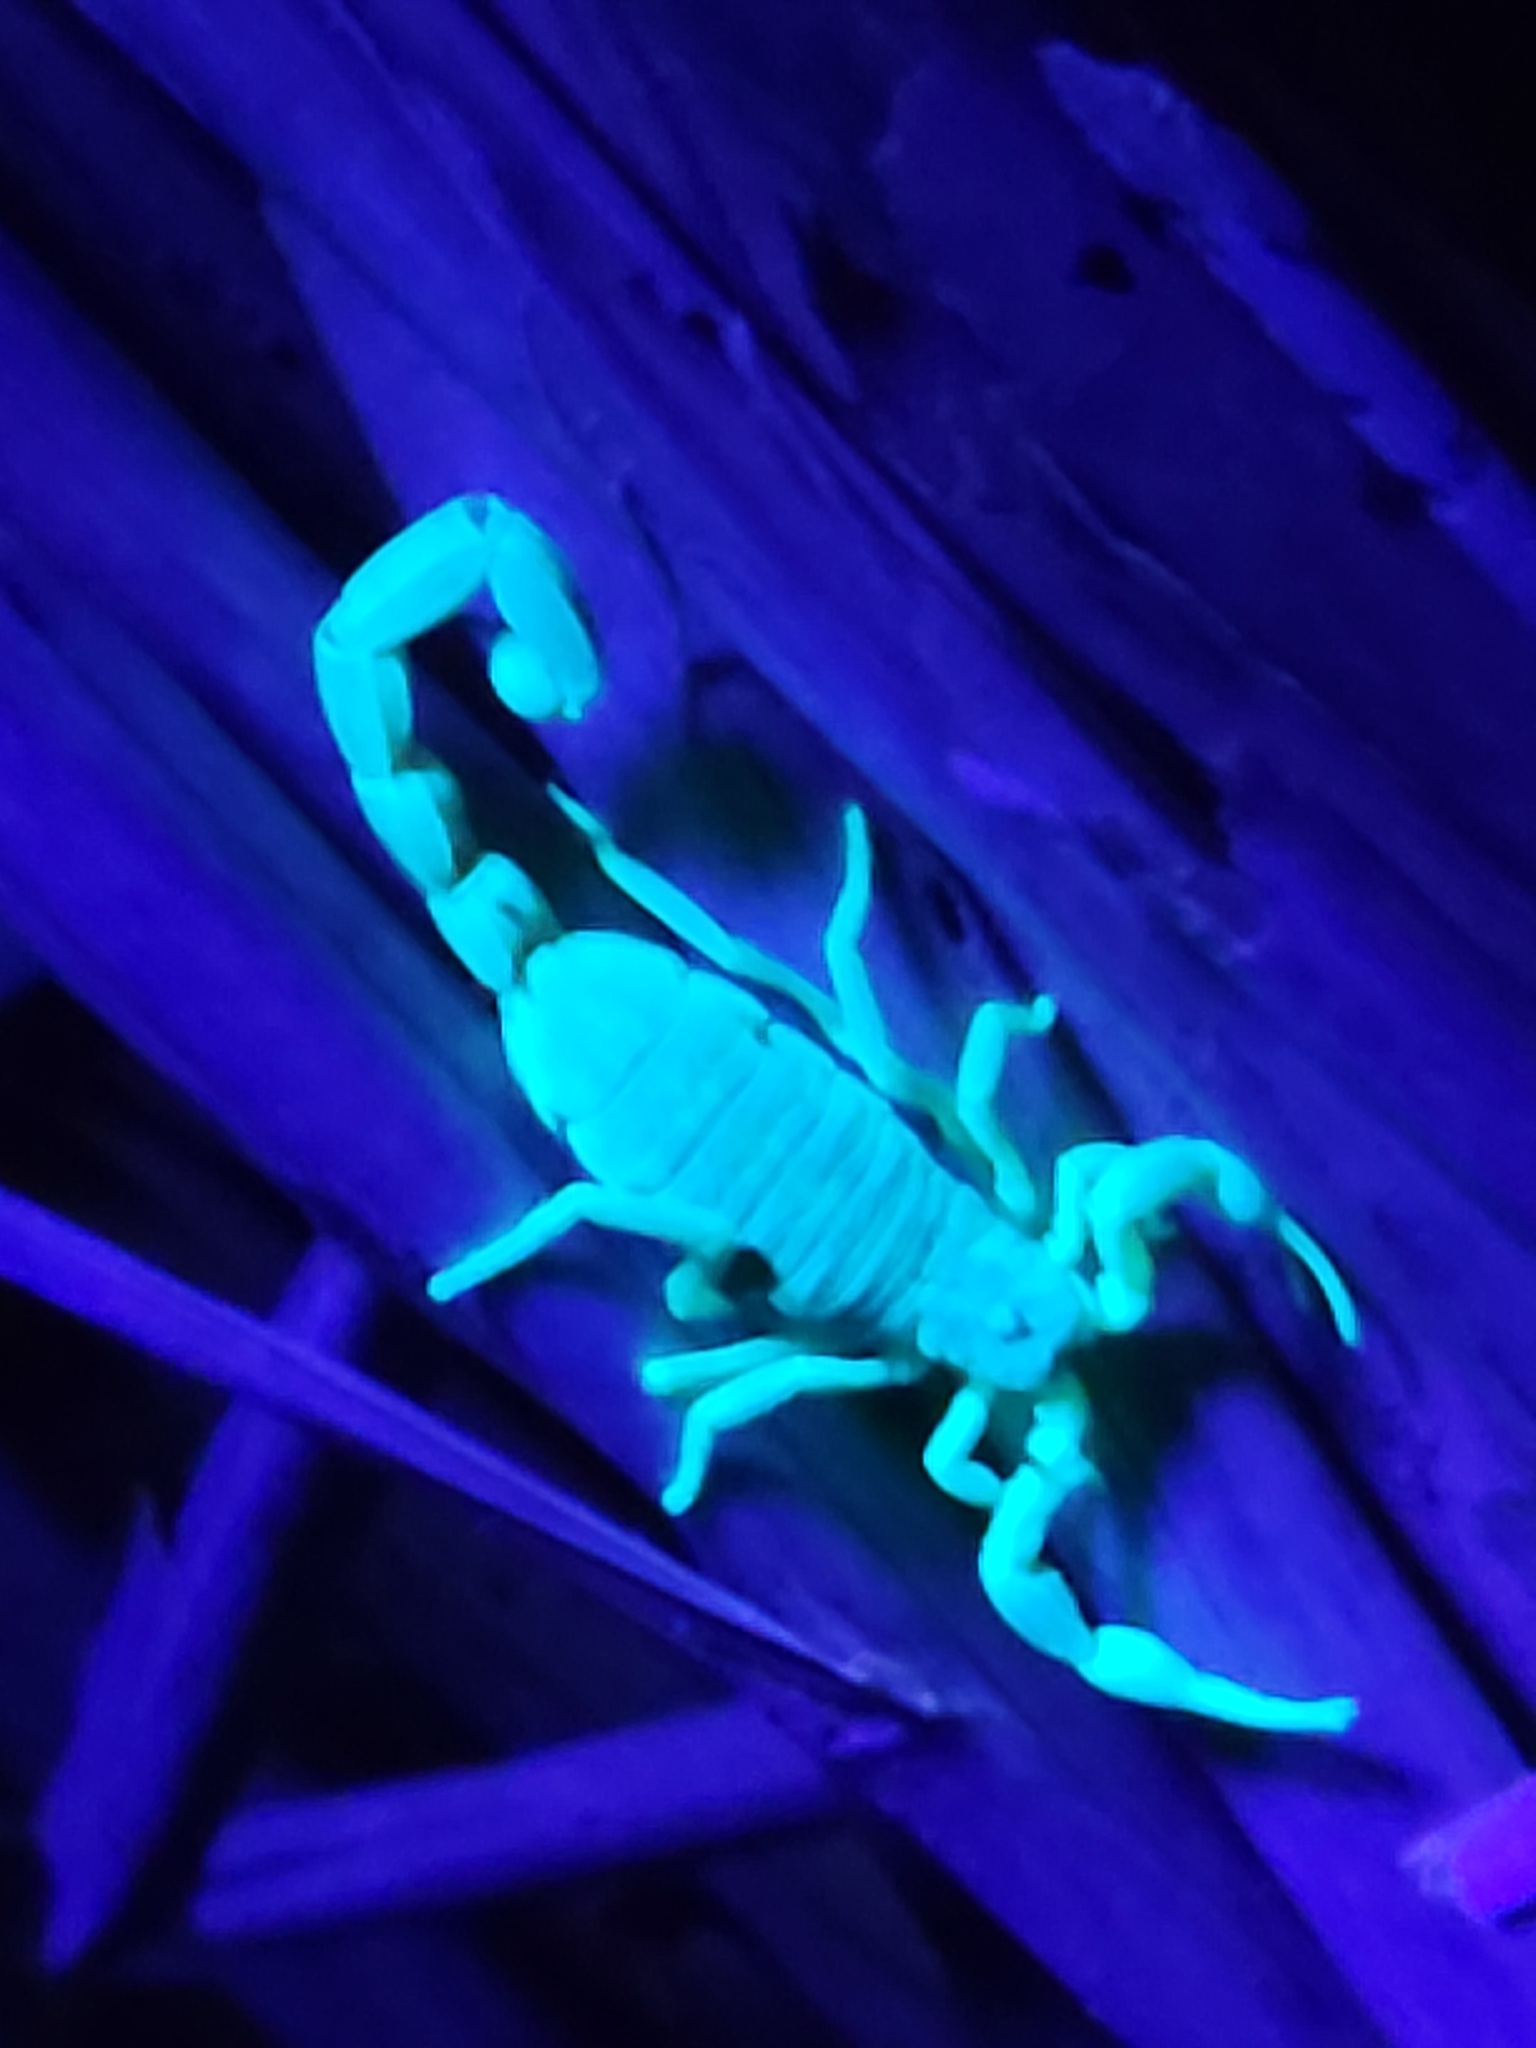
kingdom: Animalia
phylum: Arthropoda
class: Arachnida
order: Scorpiones
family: Buthidae
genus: Centruroides
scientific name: Centruroides vittatus
